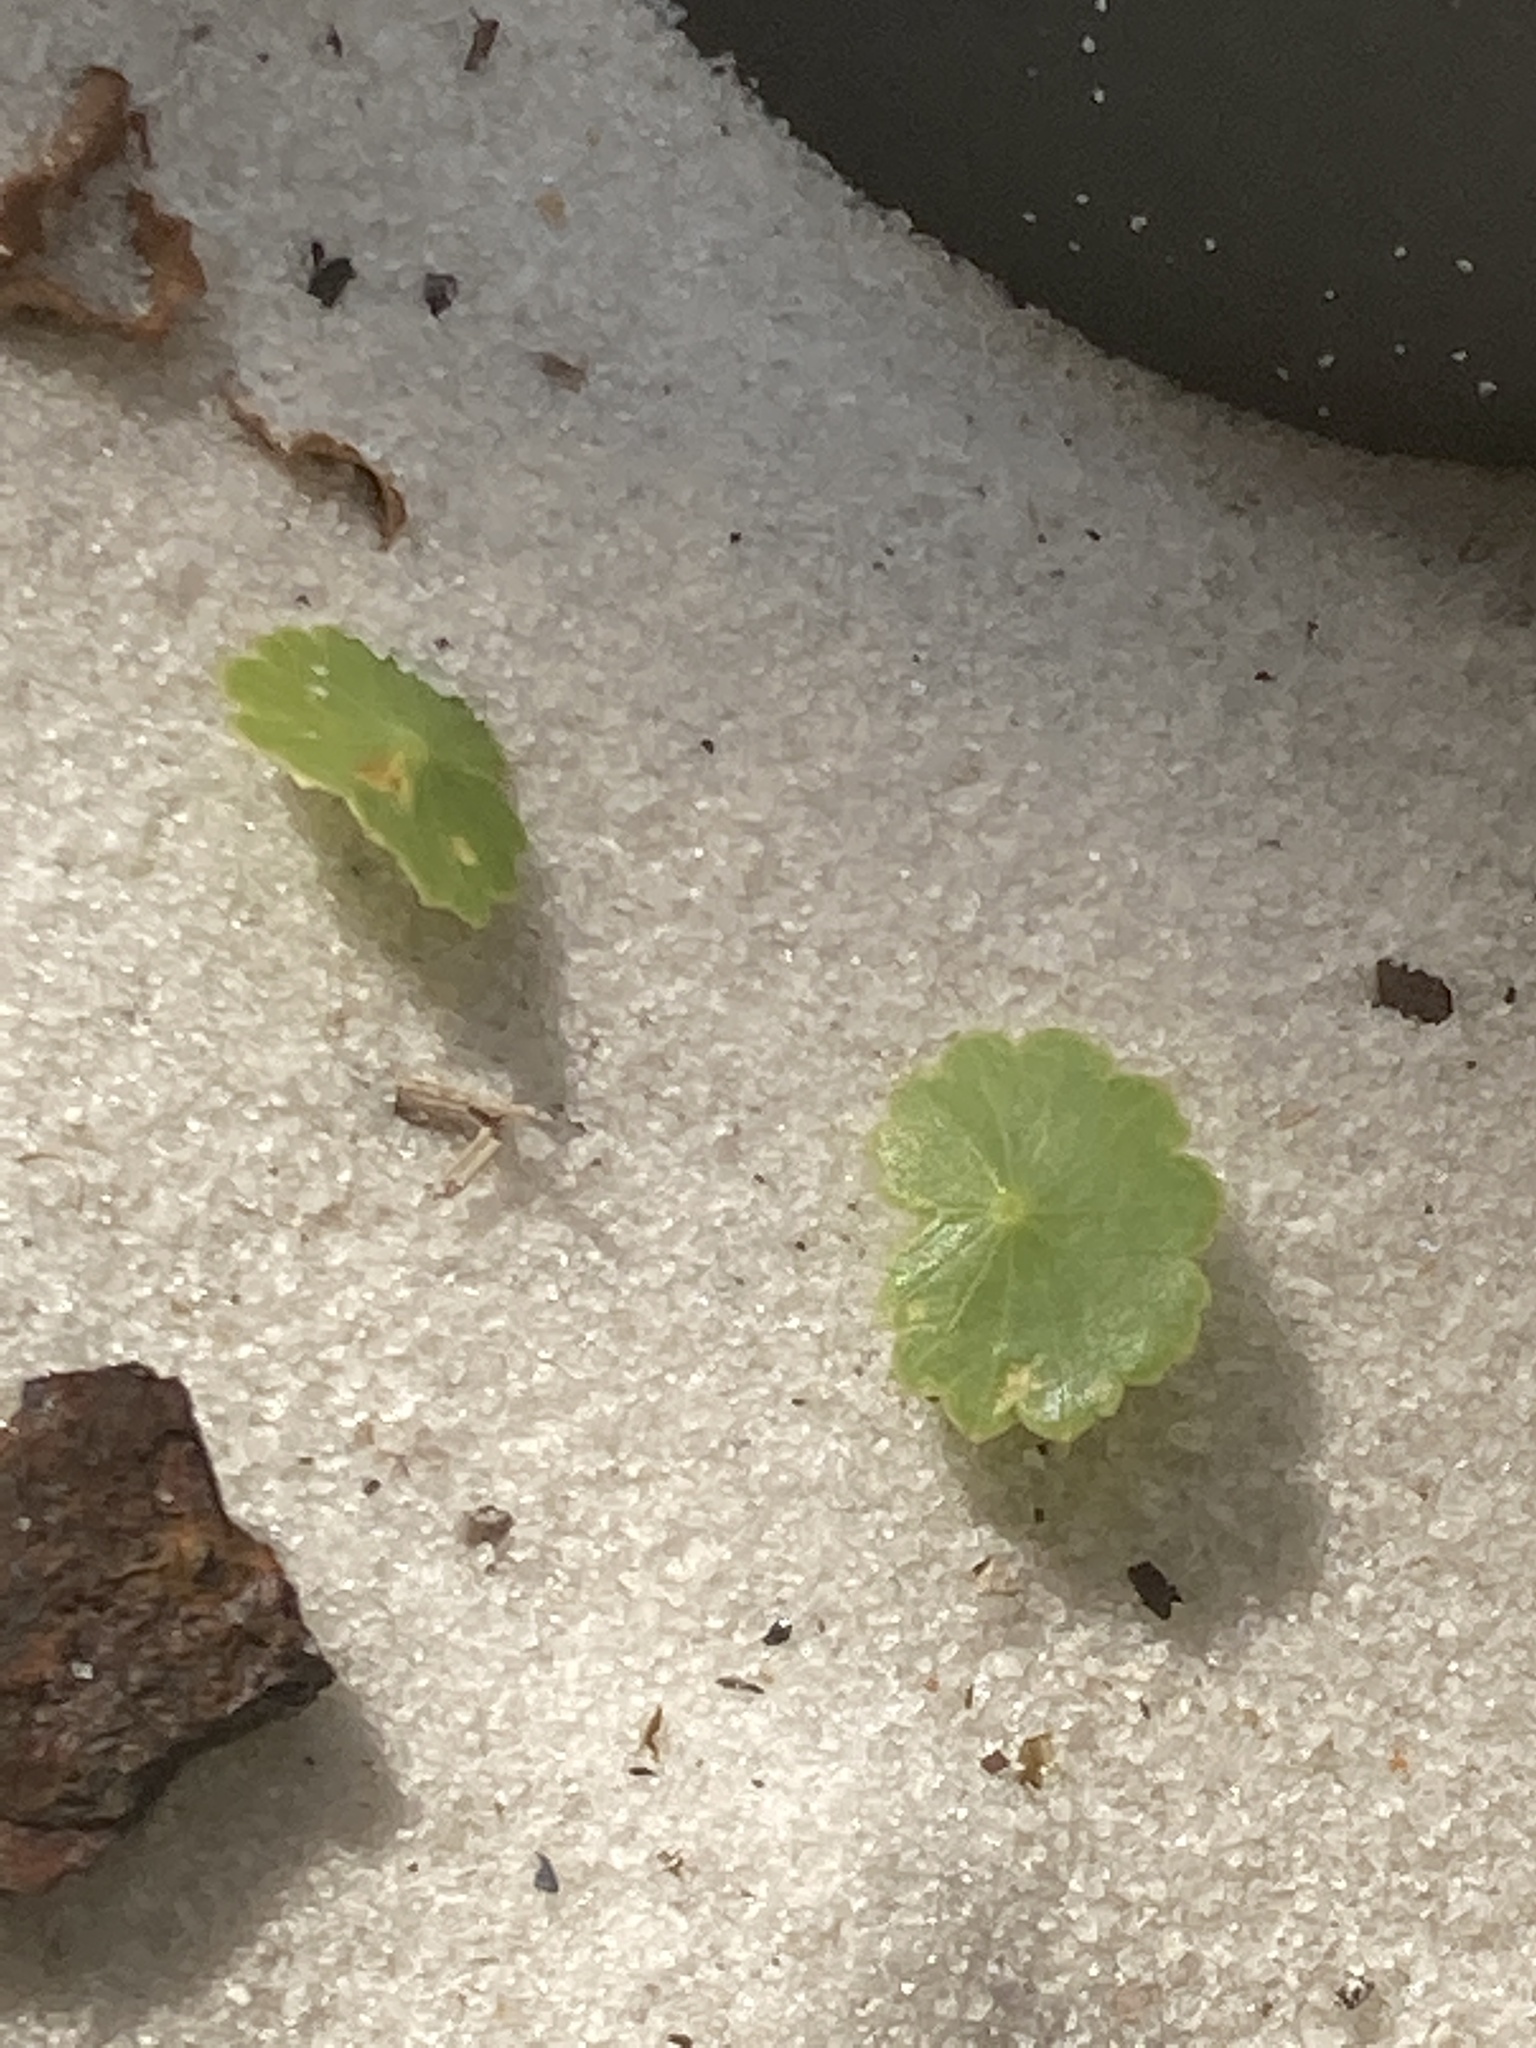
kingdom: Plantae
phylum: Tracheophyta
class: Magnoliopsida
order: Apiales
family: Araliaceae
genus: Hydrocotyle
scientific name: Hydrocotyle bonariensis
